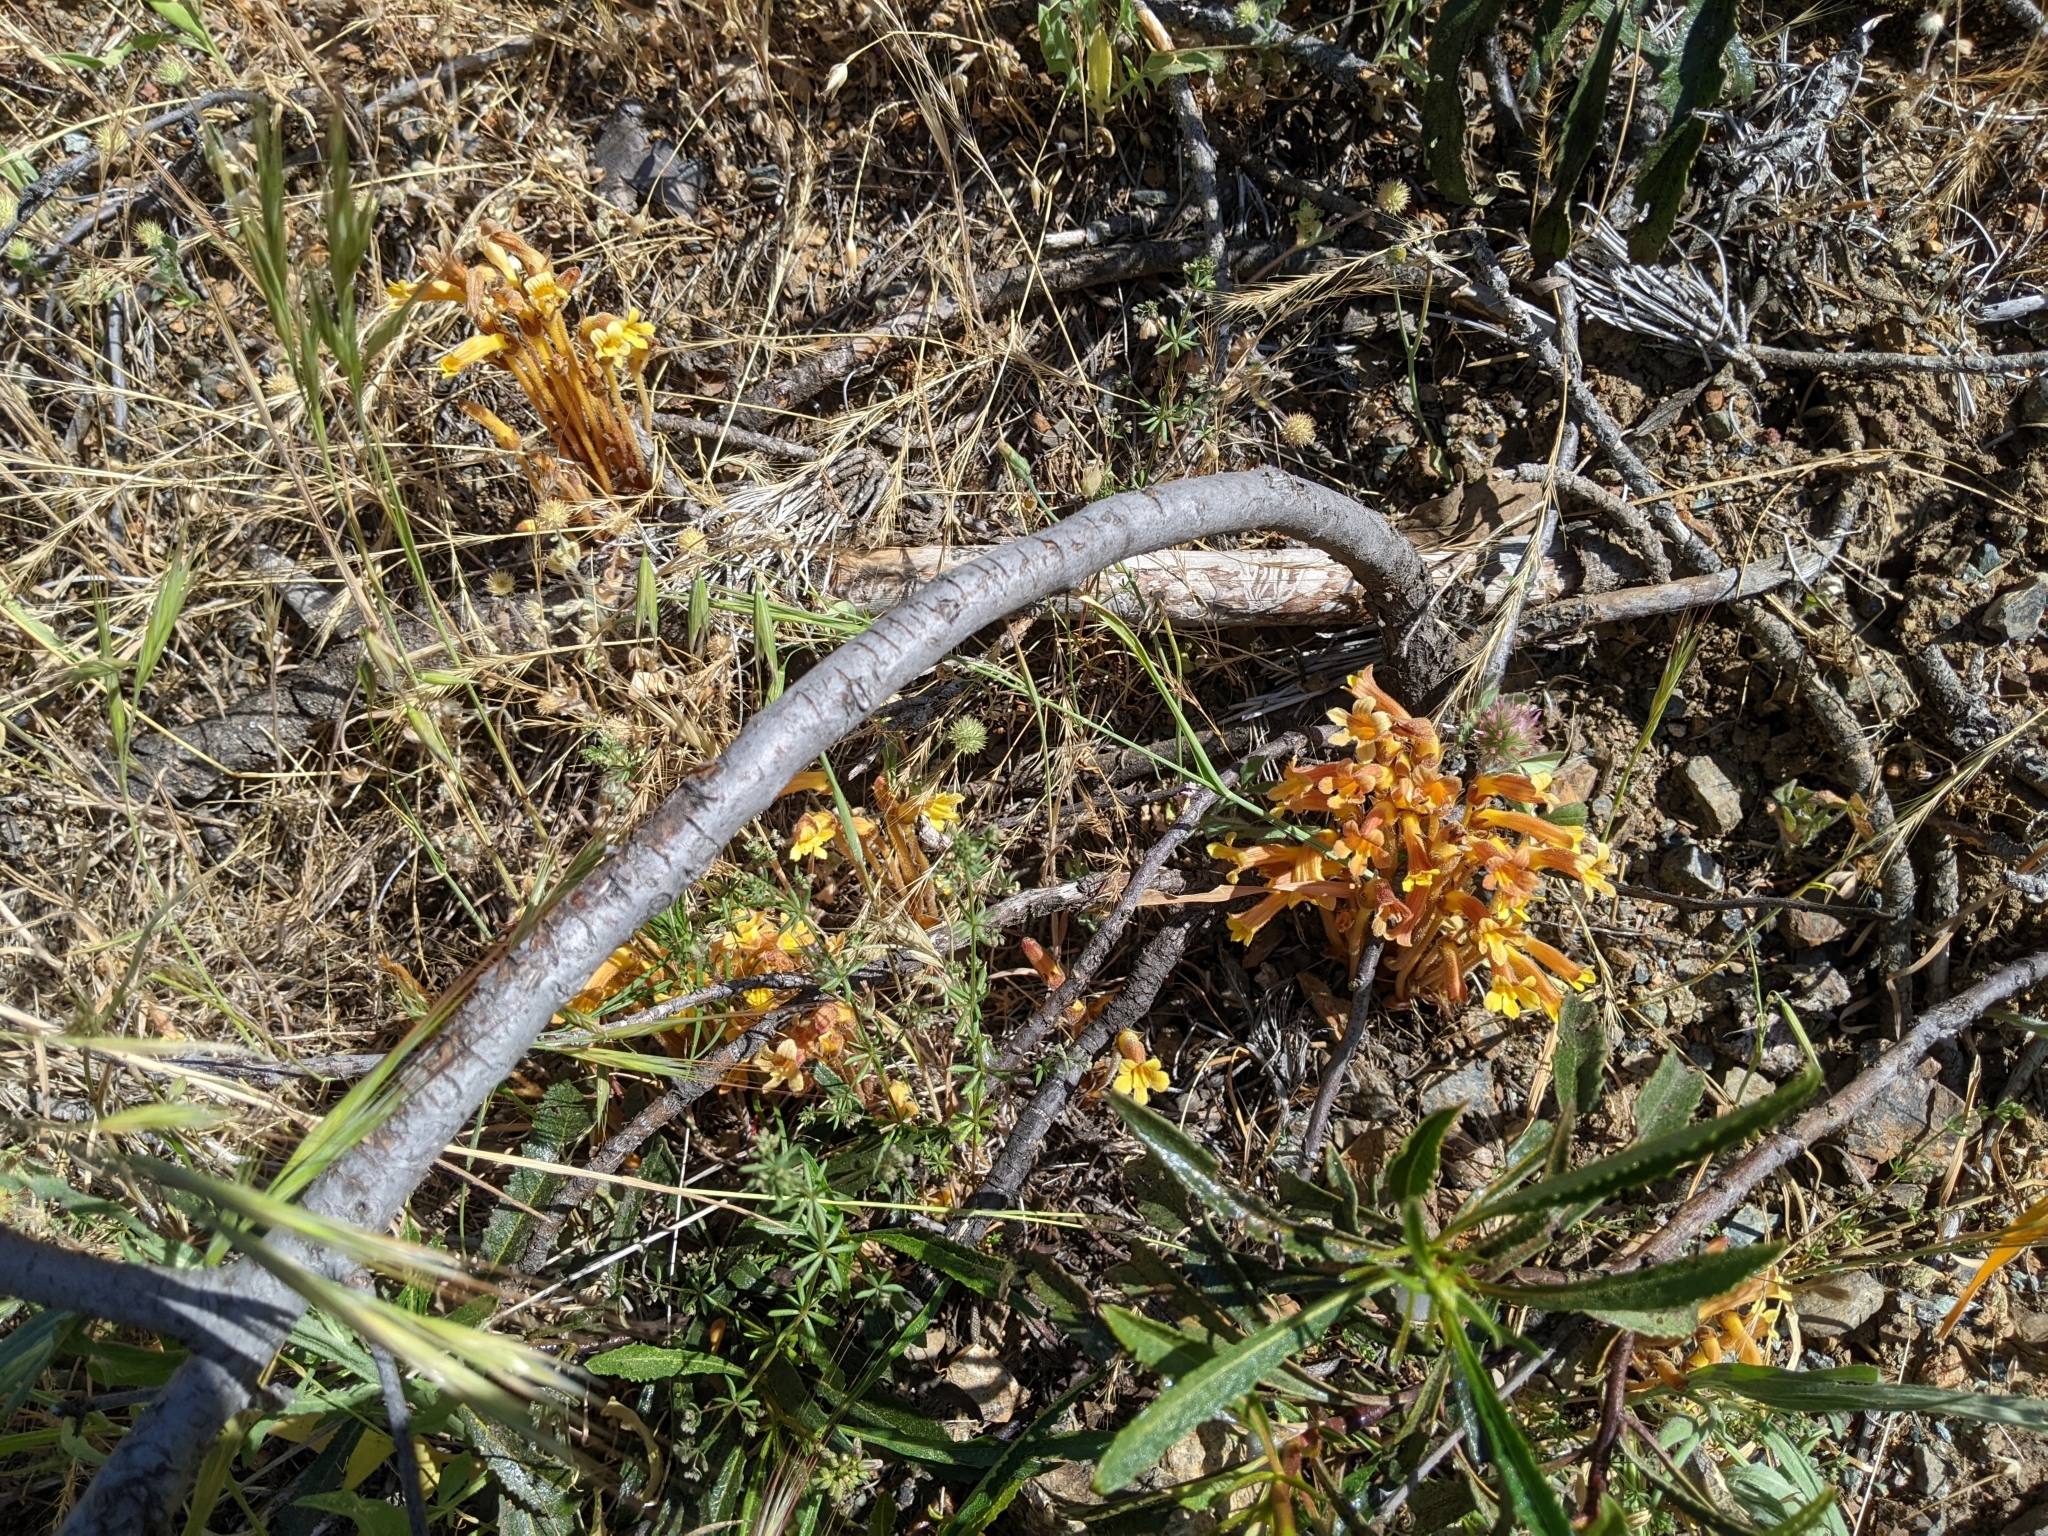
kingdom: Plantae
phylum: Tracheophyta
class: Magnoliopsida
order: Lamiales
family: Orobanchaceae
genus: Aphyllon
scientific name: Aphyllon franciscanum
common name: San francisco broomrape
